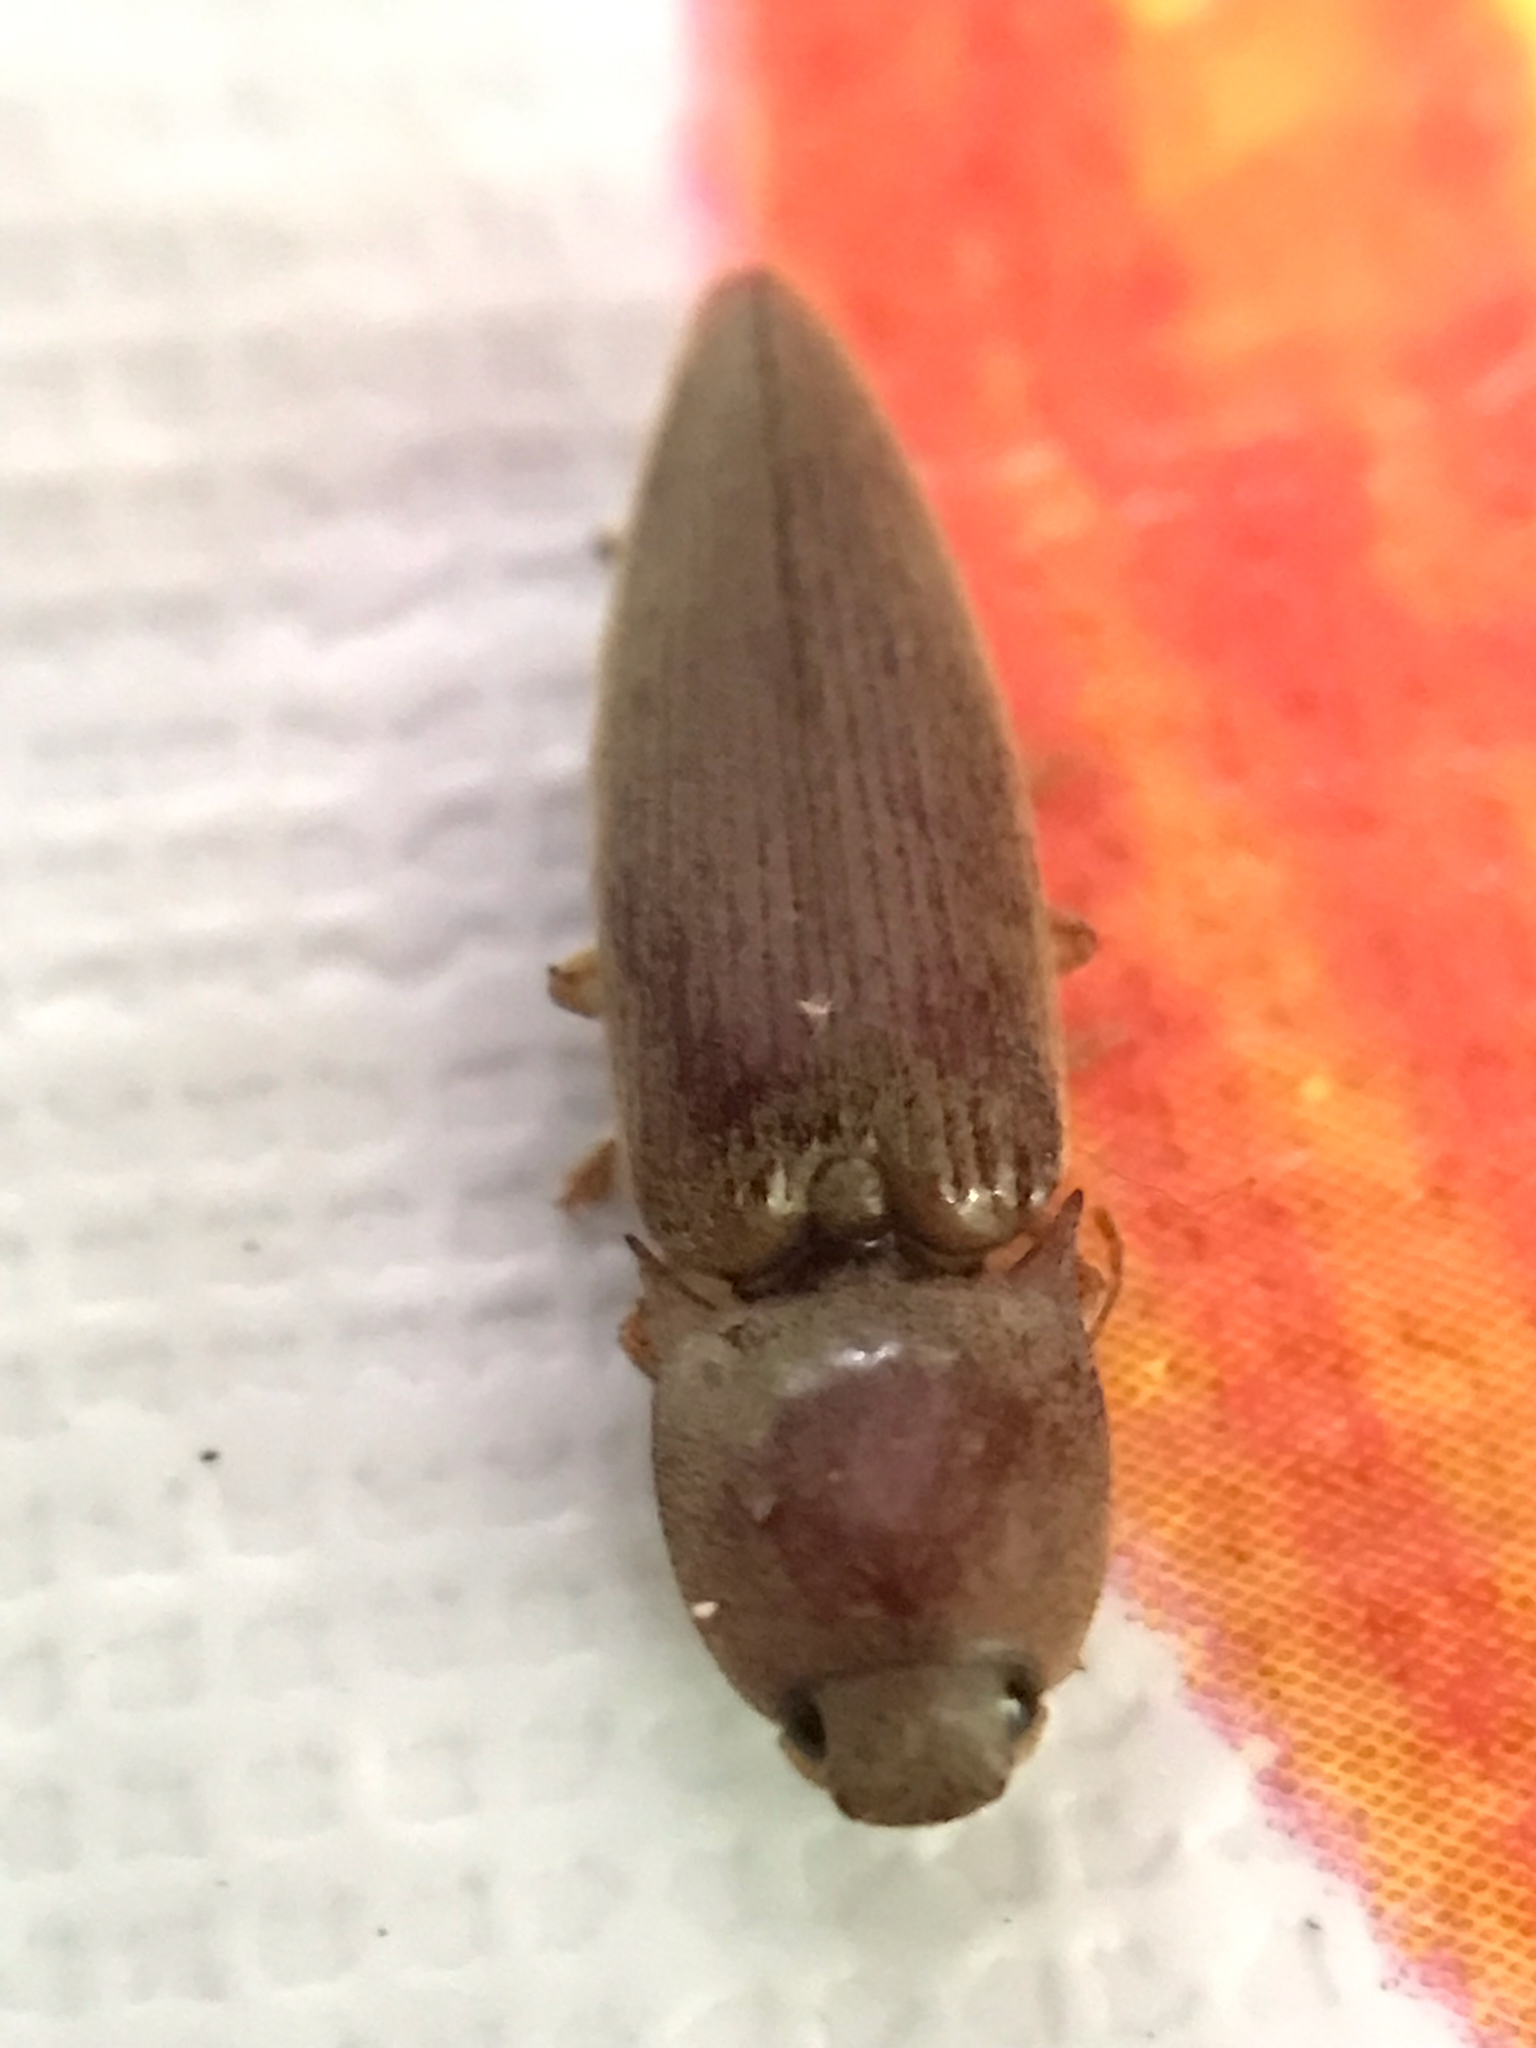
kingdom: Animalia
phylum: Arthropoda
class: Insecta
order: Coleoptera
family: Elateridae
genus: Monocrepidius
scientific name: Monocrepidius lividus
